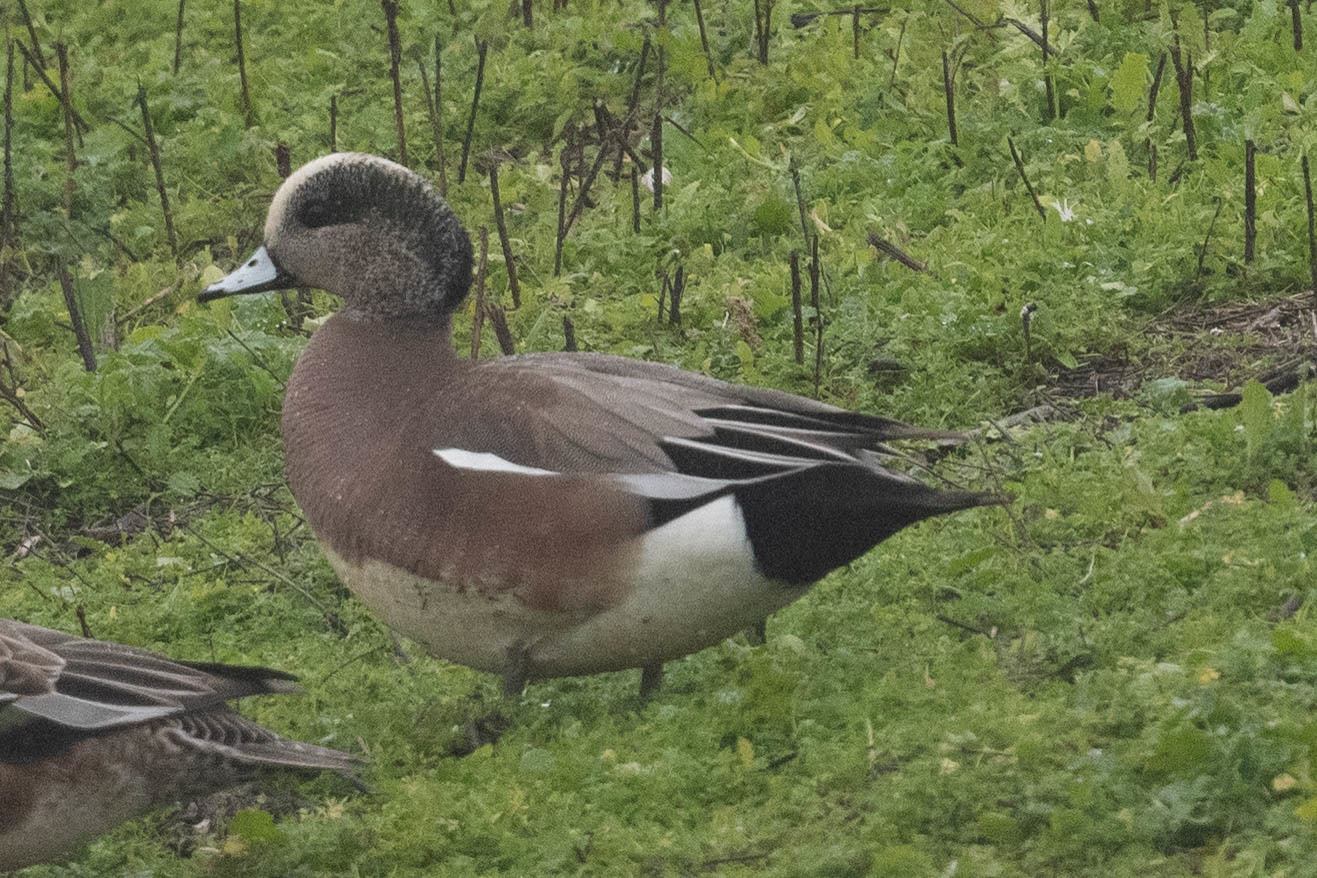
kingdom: Animalia
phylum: Chordata
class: Aves
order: Anseriformes
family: Anatidae
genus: Mareca
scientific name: Mareca americana
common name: American wigeon
